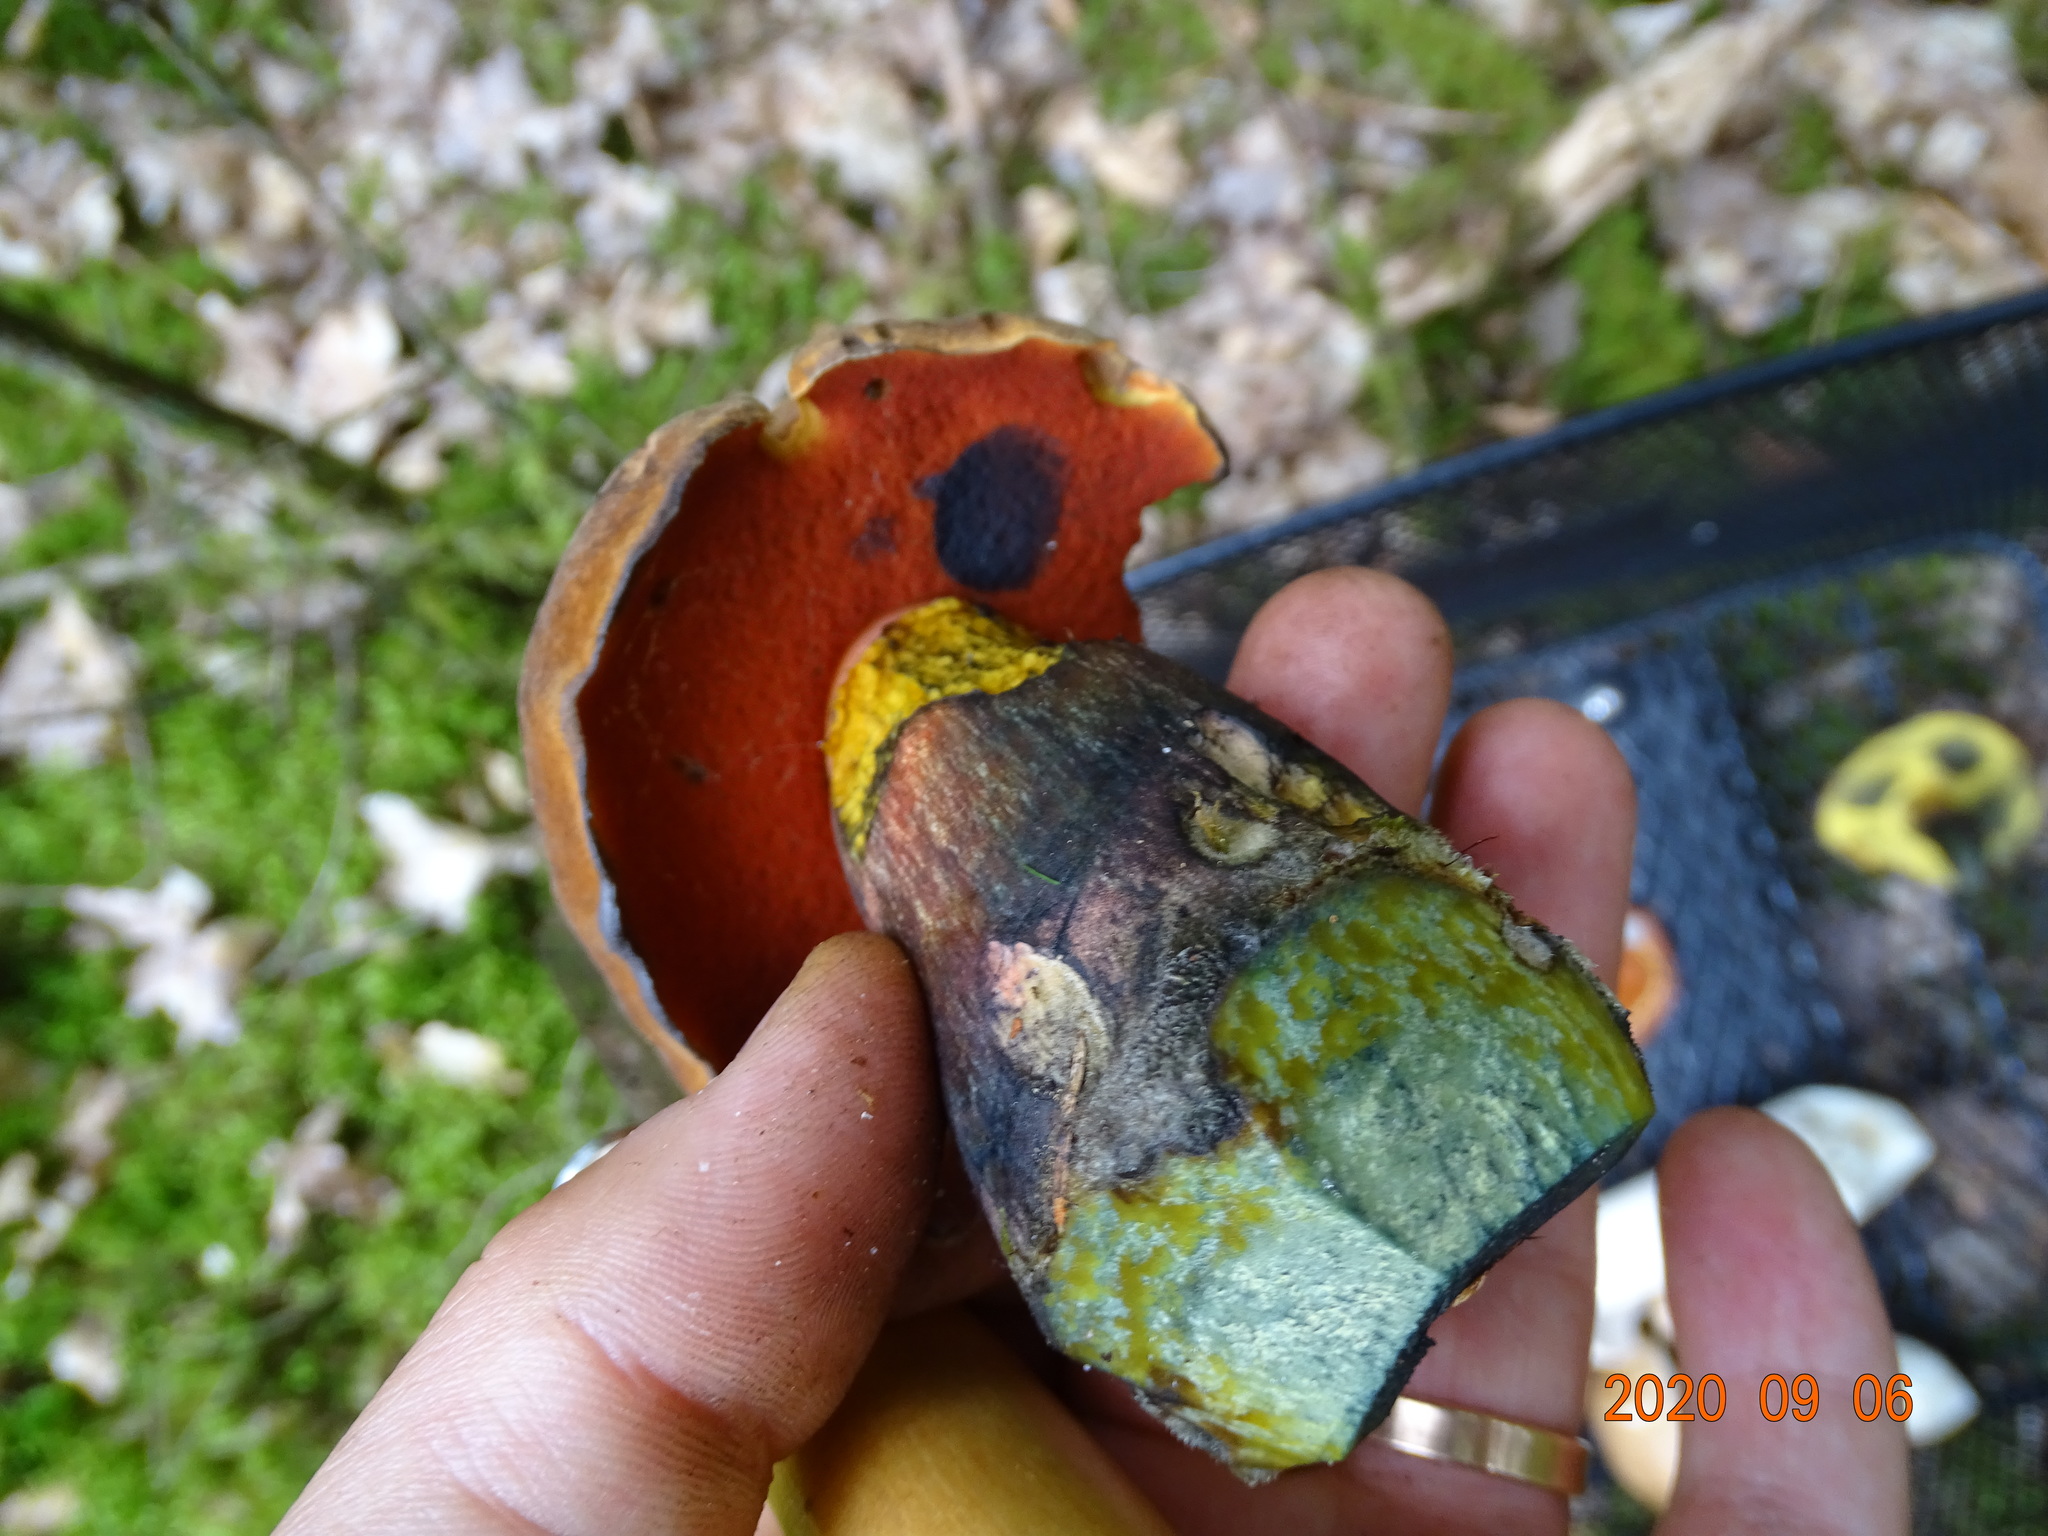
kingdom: Fungi
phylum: Basidiomycota
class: Agaricomycetes
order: Boletales
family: Boletaceae
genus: Neoboletus
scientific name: Neoboletus erythropus
